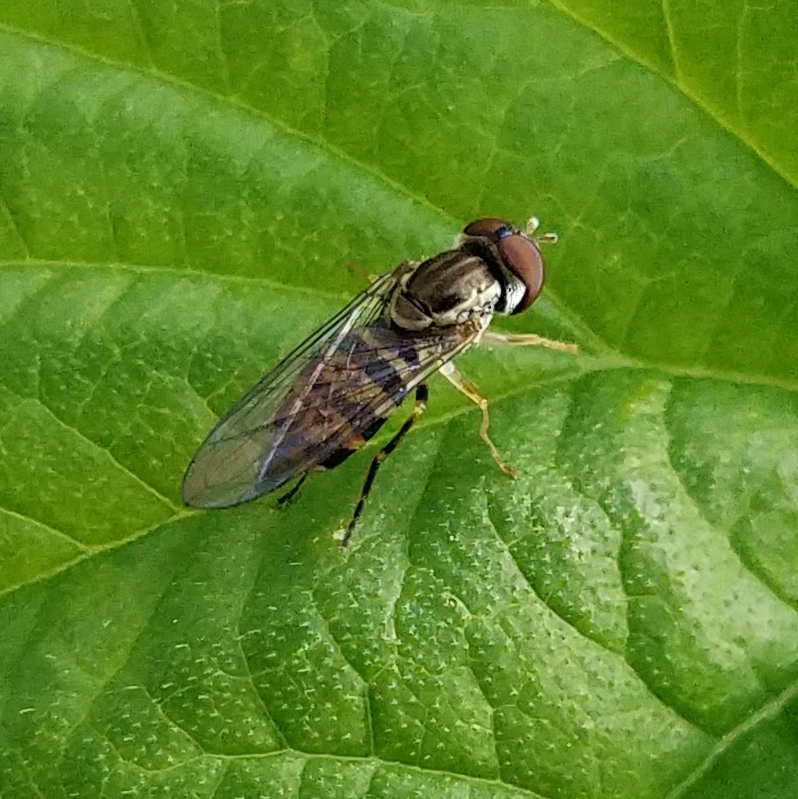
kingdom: Animalia
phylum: Arthropoda
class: Insecta
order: Diptera
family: Syrphidae
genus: Toxomerus
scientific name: Toxomerus geminatus
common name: Eastern calligrapher
